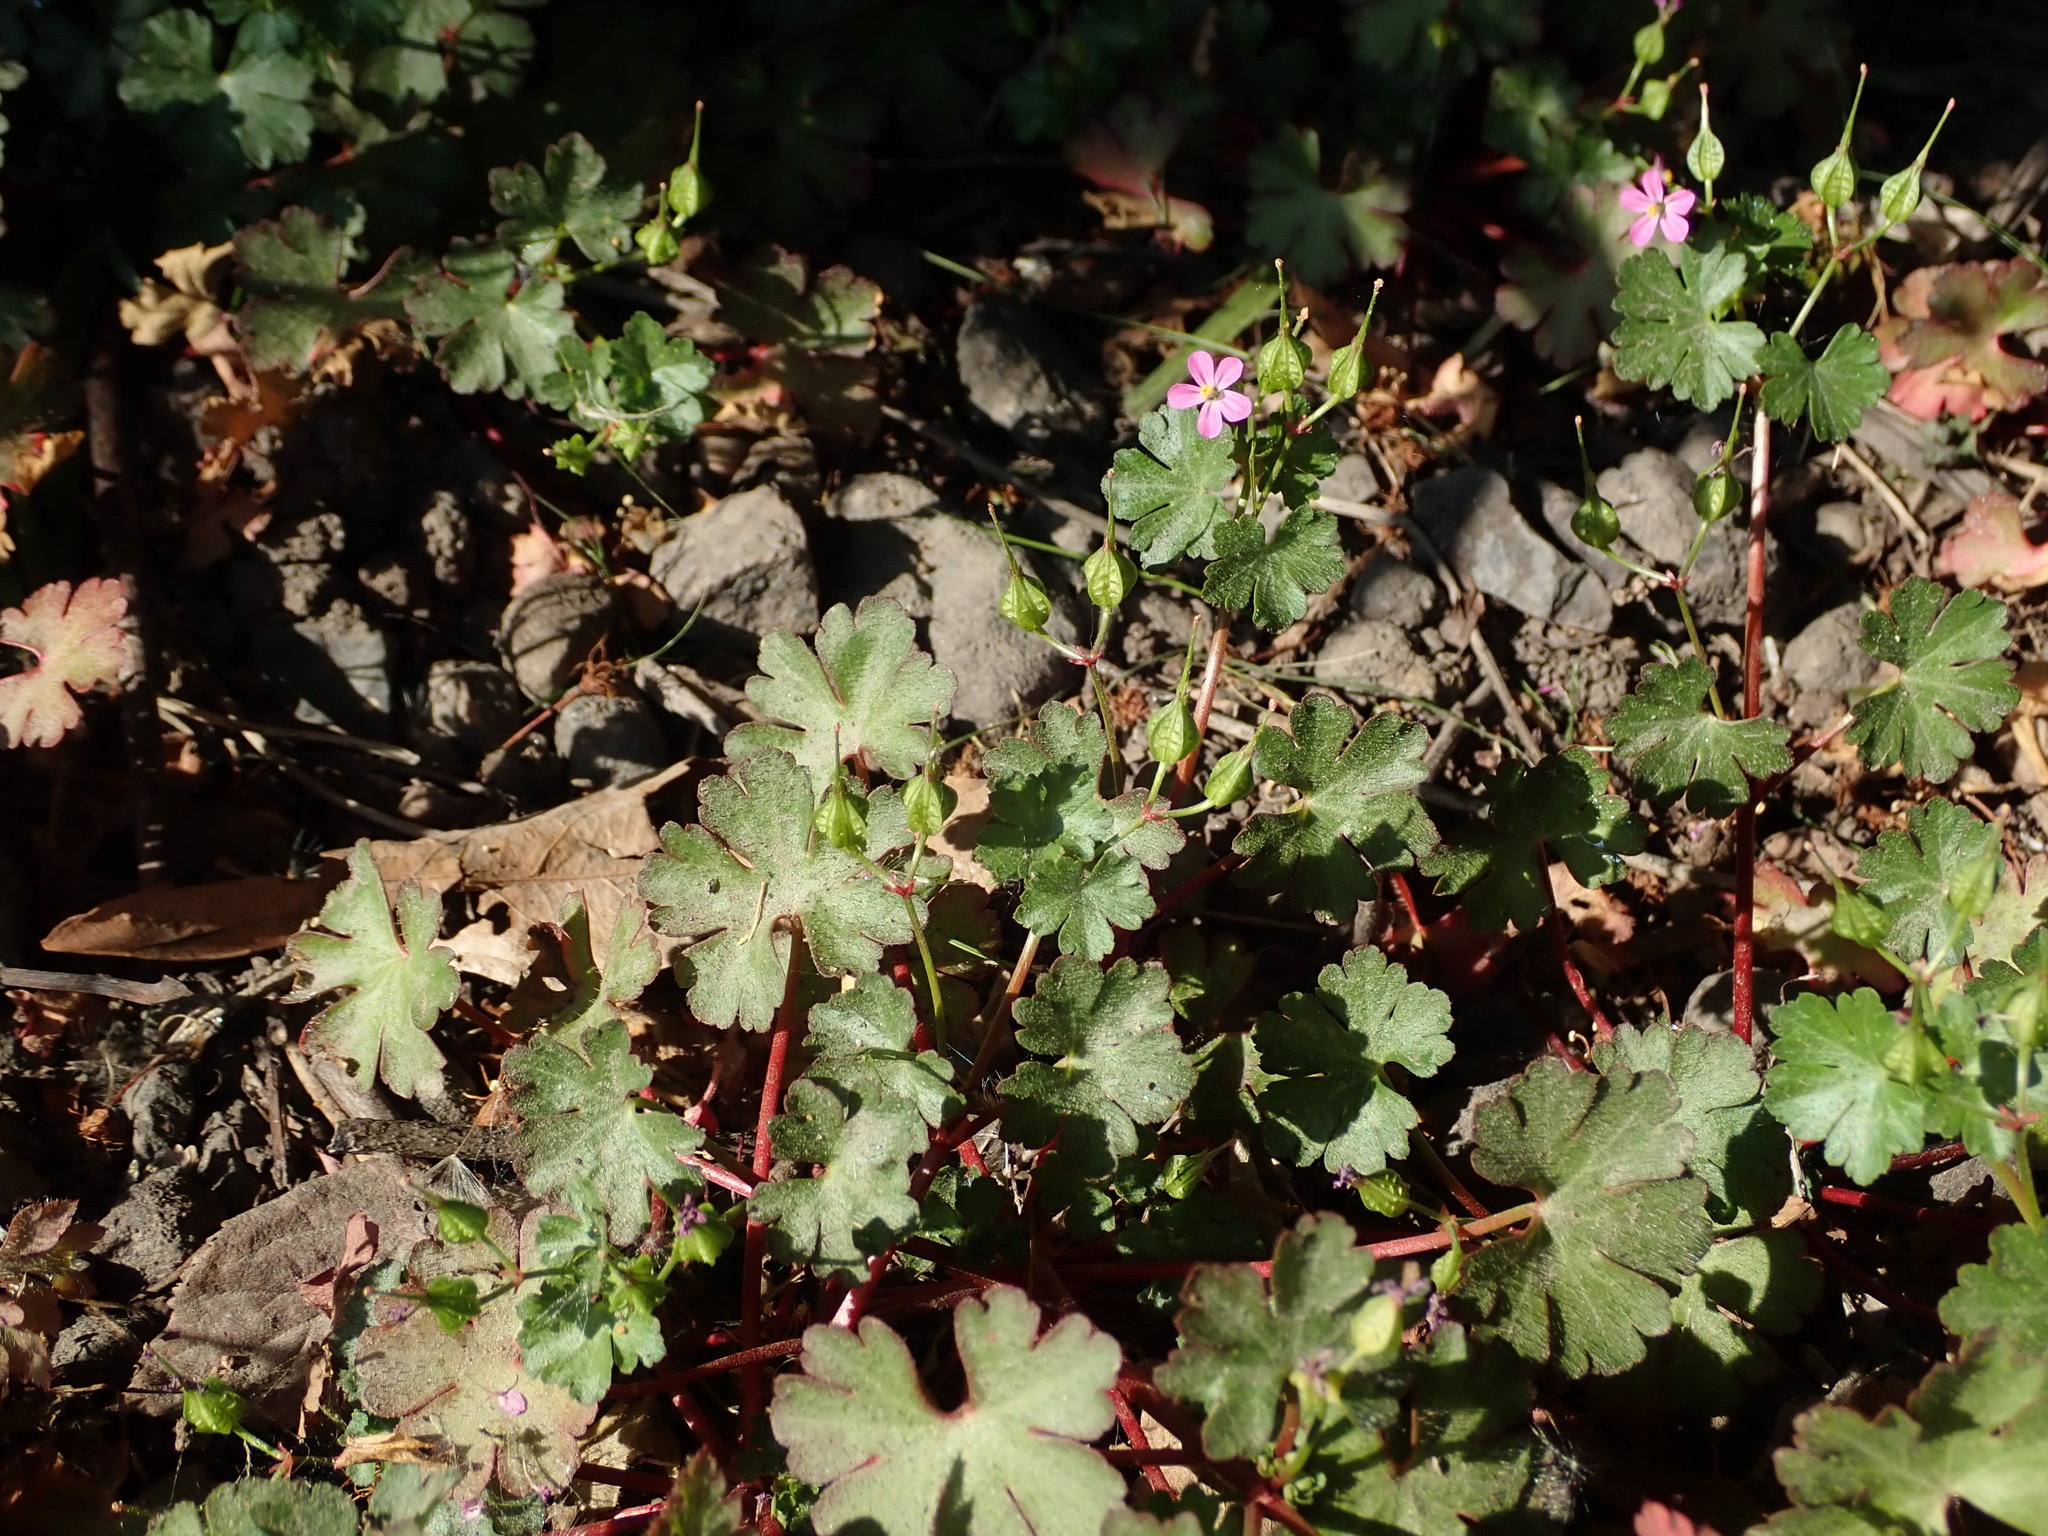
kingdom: Plantae
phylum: Tracheophyta
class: Magnoliopsida
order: Geraniales
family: Geraniaceae
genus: Geranium
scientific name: Geranium lucidum
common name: Shining crane's-bill
